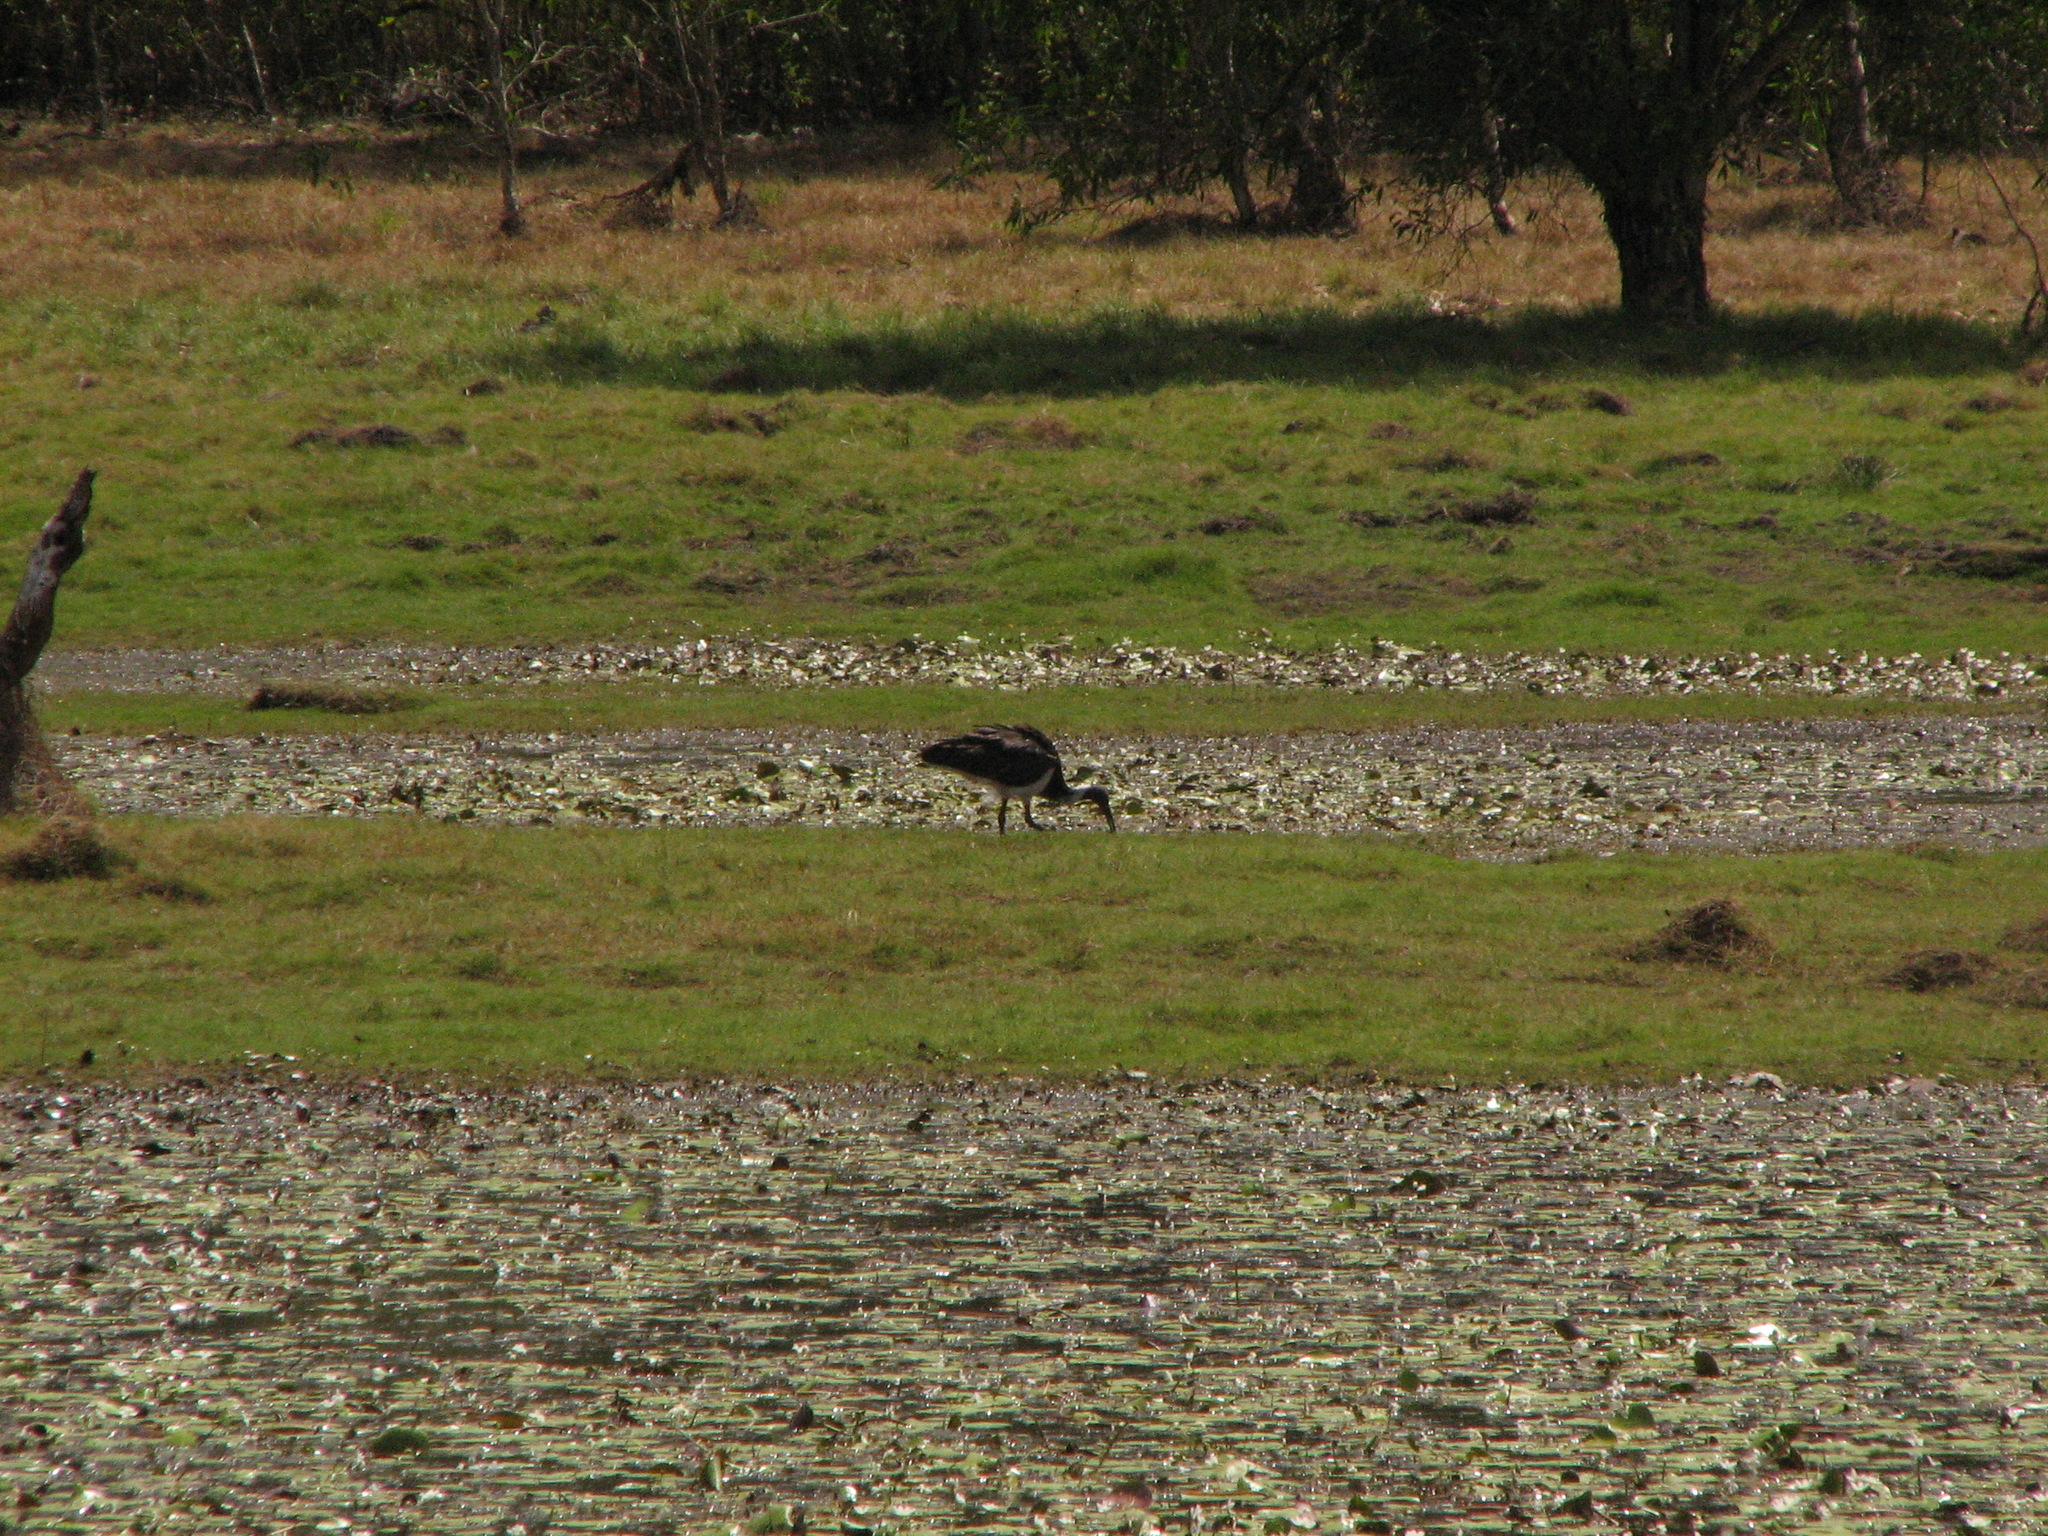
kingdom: Animalia
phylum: Chordata
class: Aves
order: Pelecaniformes
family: Threskiornithidae
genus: Threskiornis
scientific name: Threskiornis spinicollis
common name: Straw-necked ibis
